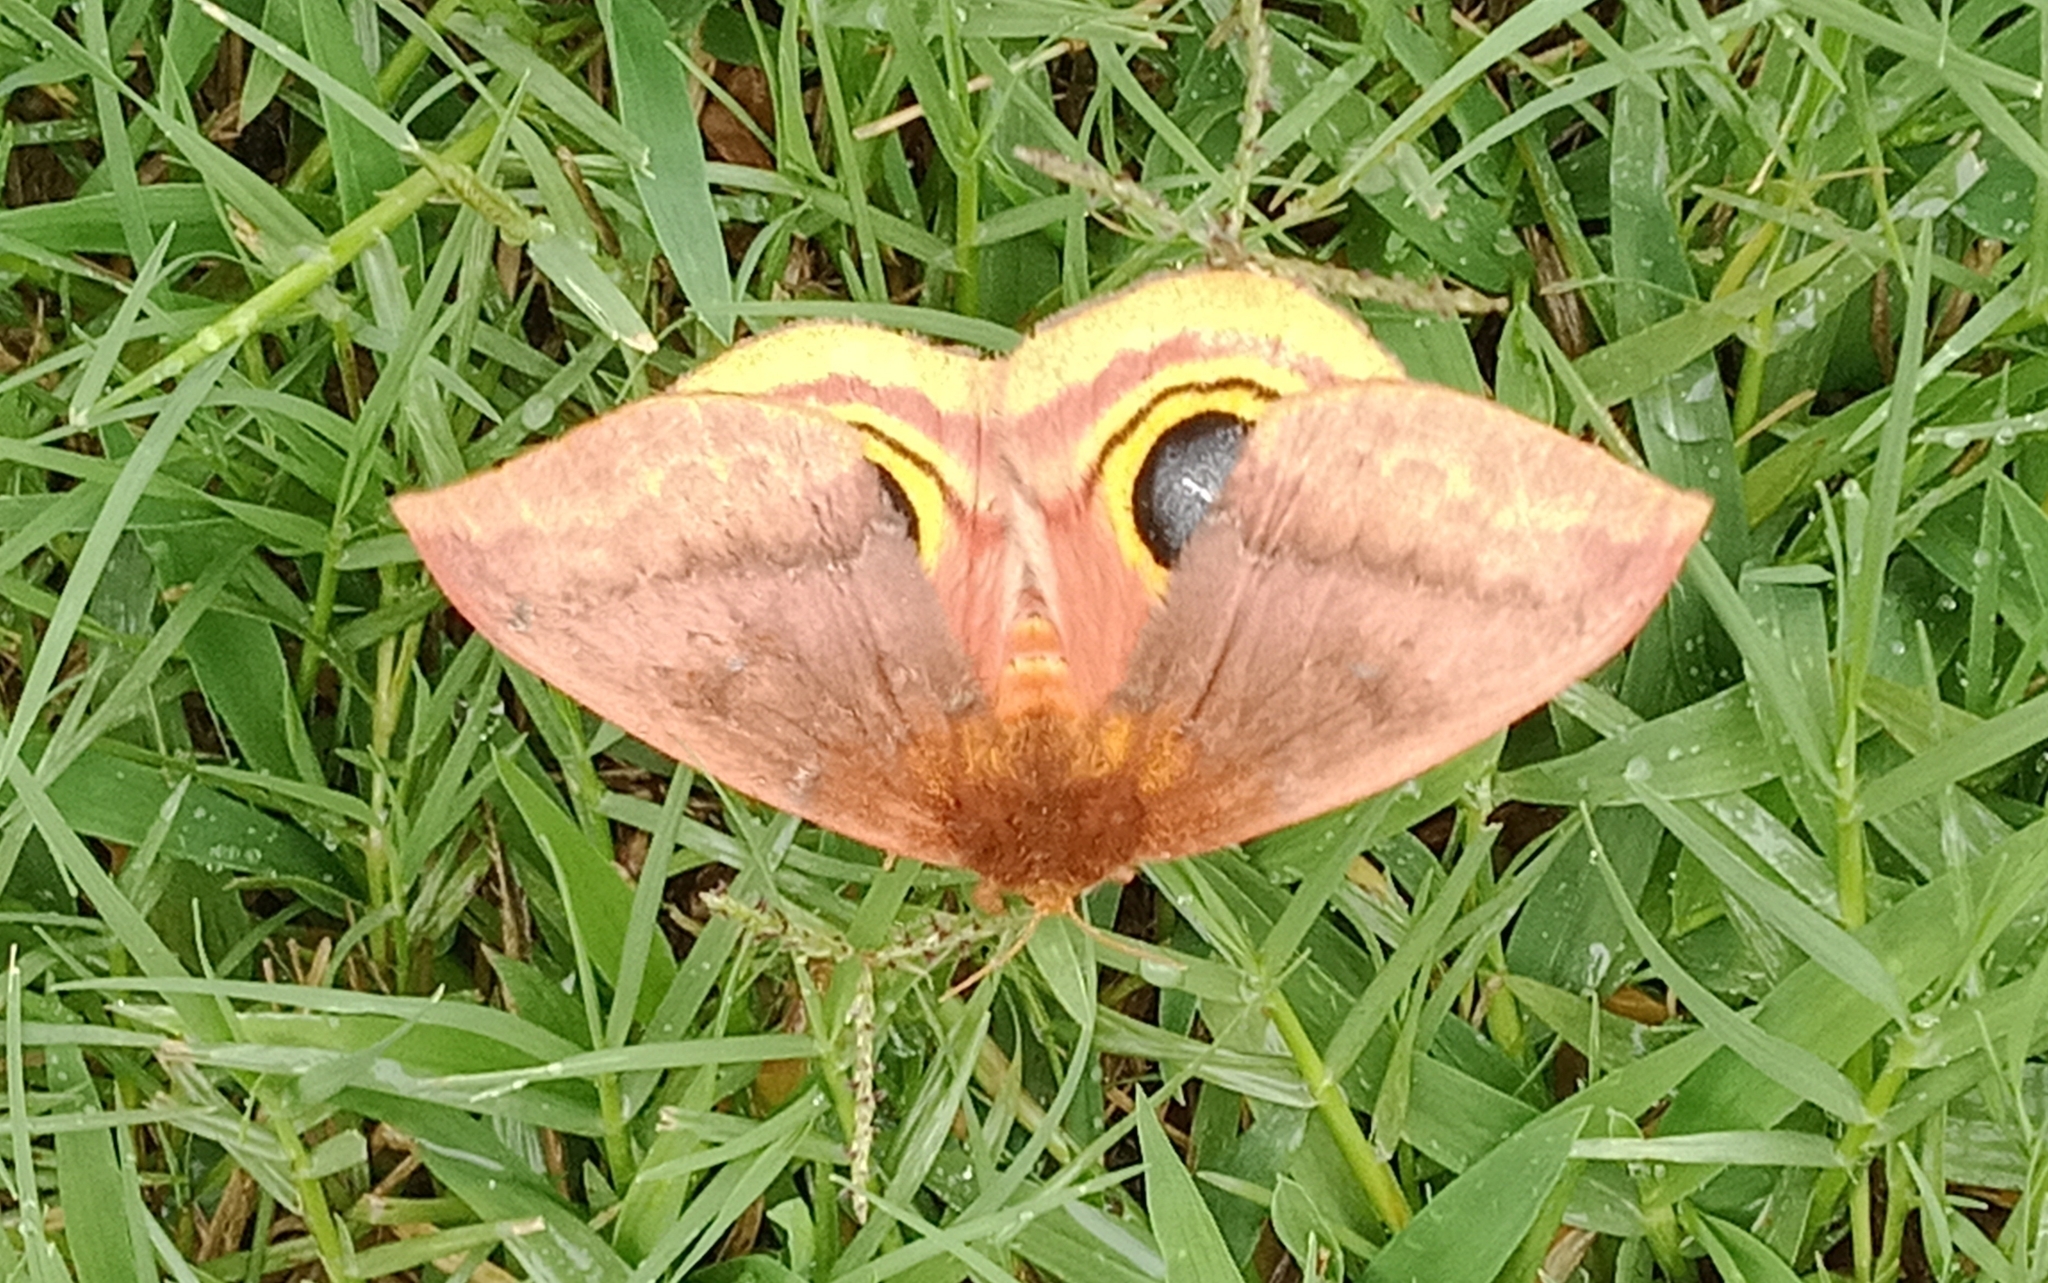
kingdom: Animalia
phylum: Arthropoda
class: Insecta
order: Lepidoptera
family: Saturniidae
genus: Automeris
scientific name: Automeris io
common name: Io moth
